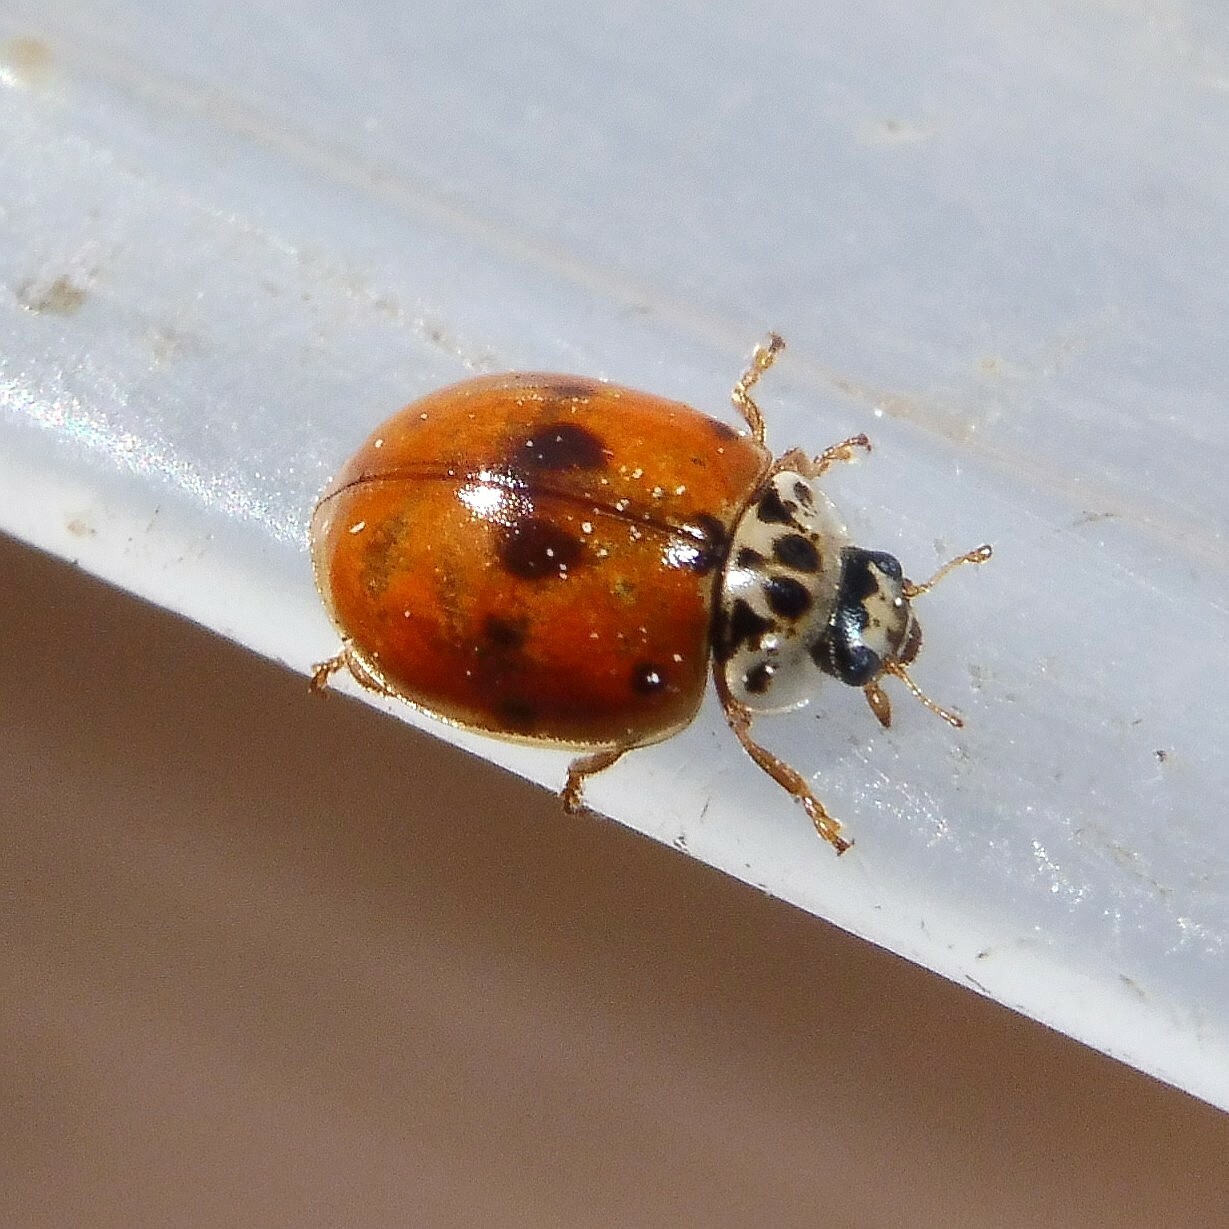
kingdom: Animalia
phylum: Arthropoda
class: Insecta
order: Coleoptera
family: Coccinellidae
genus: Adalia
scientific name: Adalia decempunctata
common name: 10-spot ladybird
